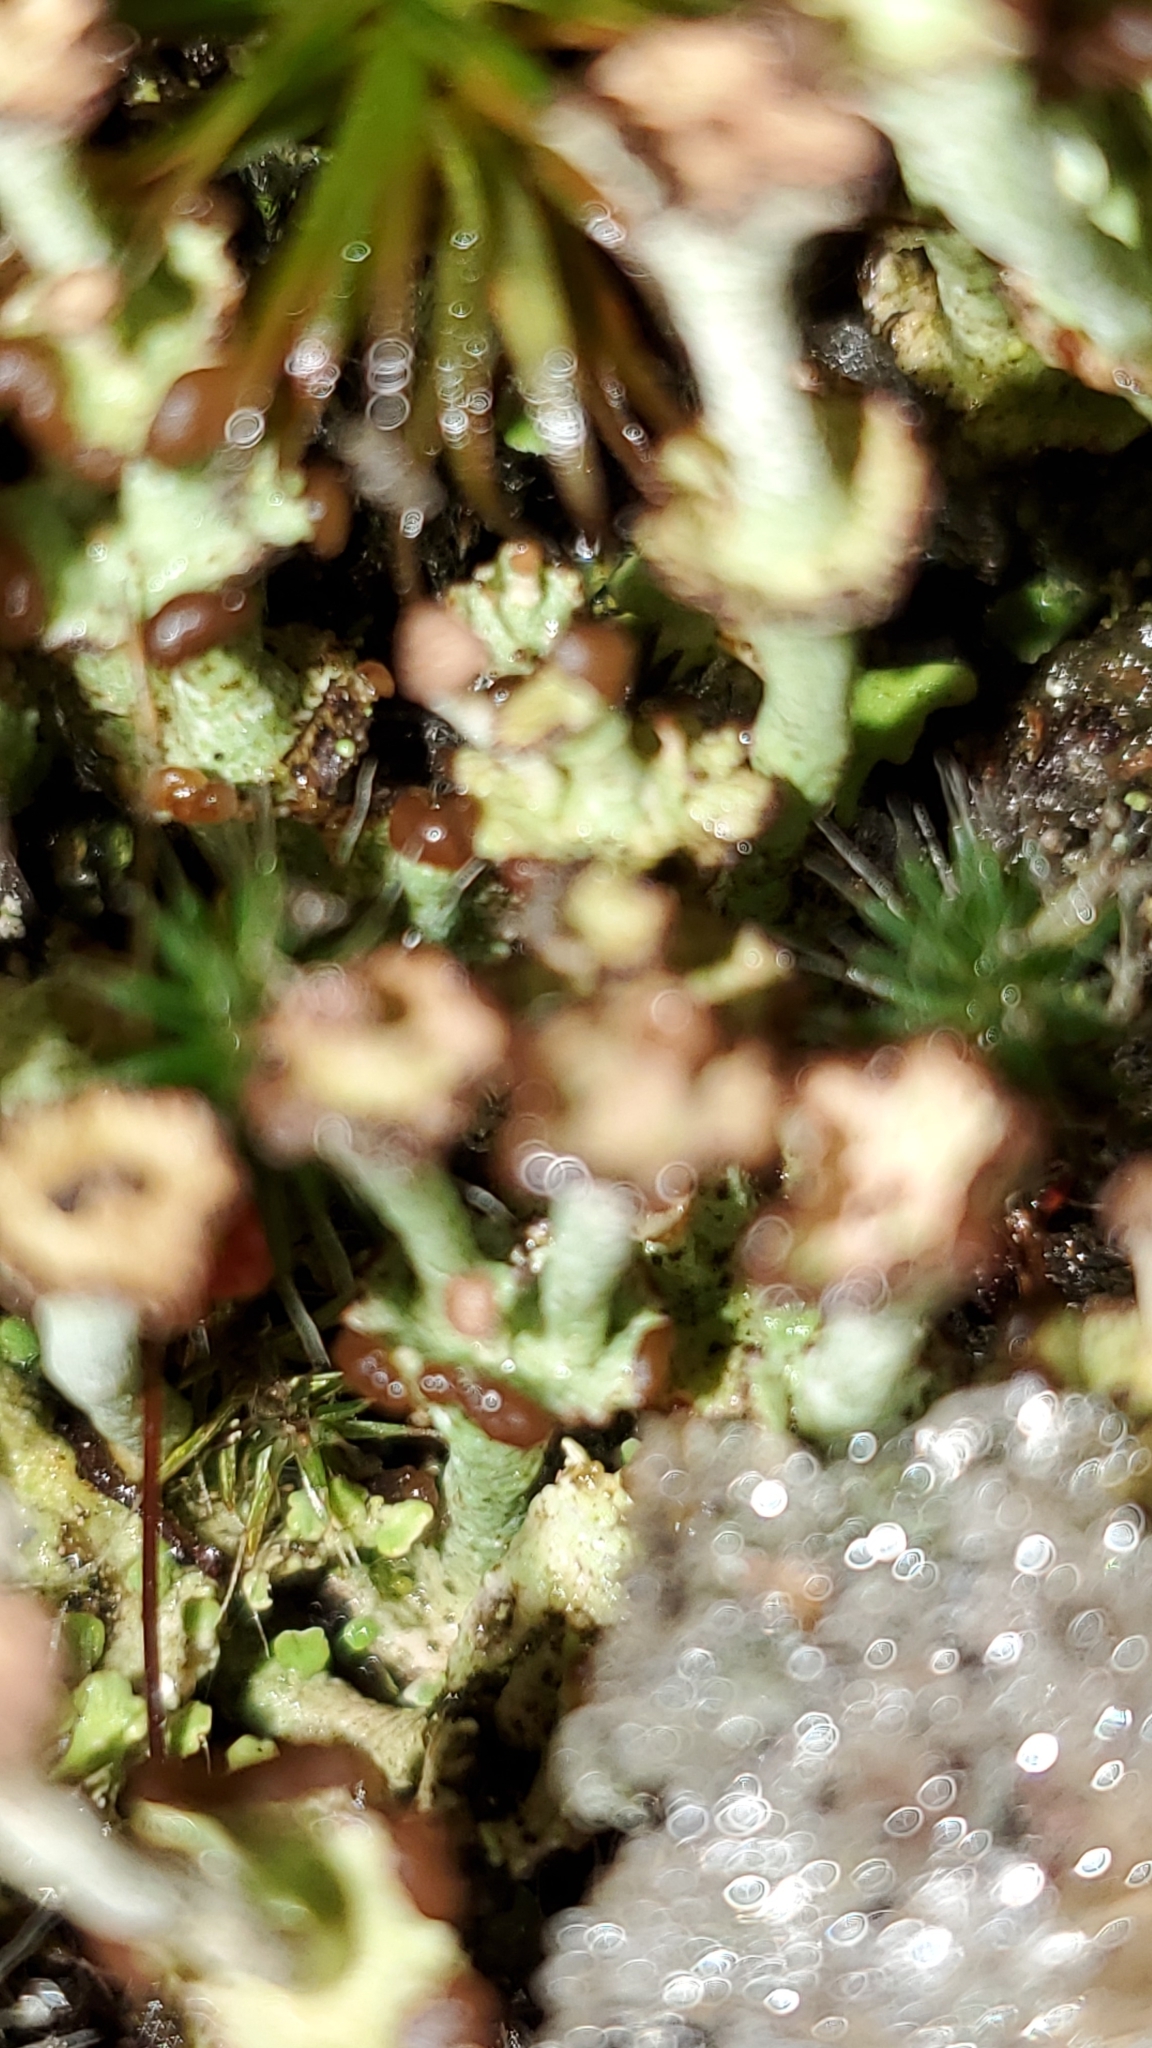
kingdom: Fungi
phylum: Ascomycota
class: Lecanoromycetes
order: Lecanorales
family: Cladoniaceae
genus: Cladonia
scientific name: Cladonia cervicornis
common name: Browned pixie-cup lichen
